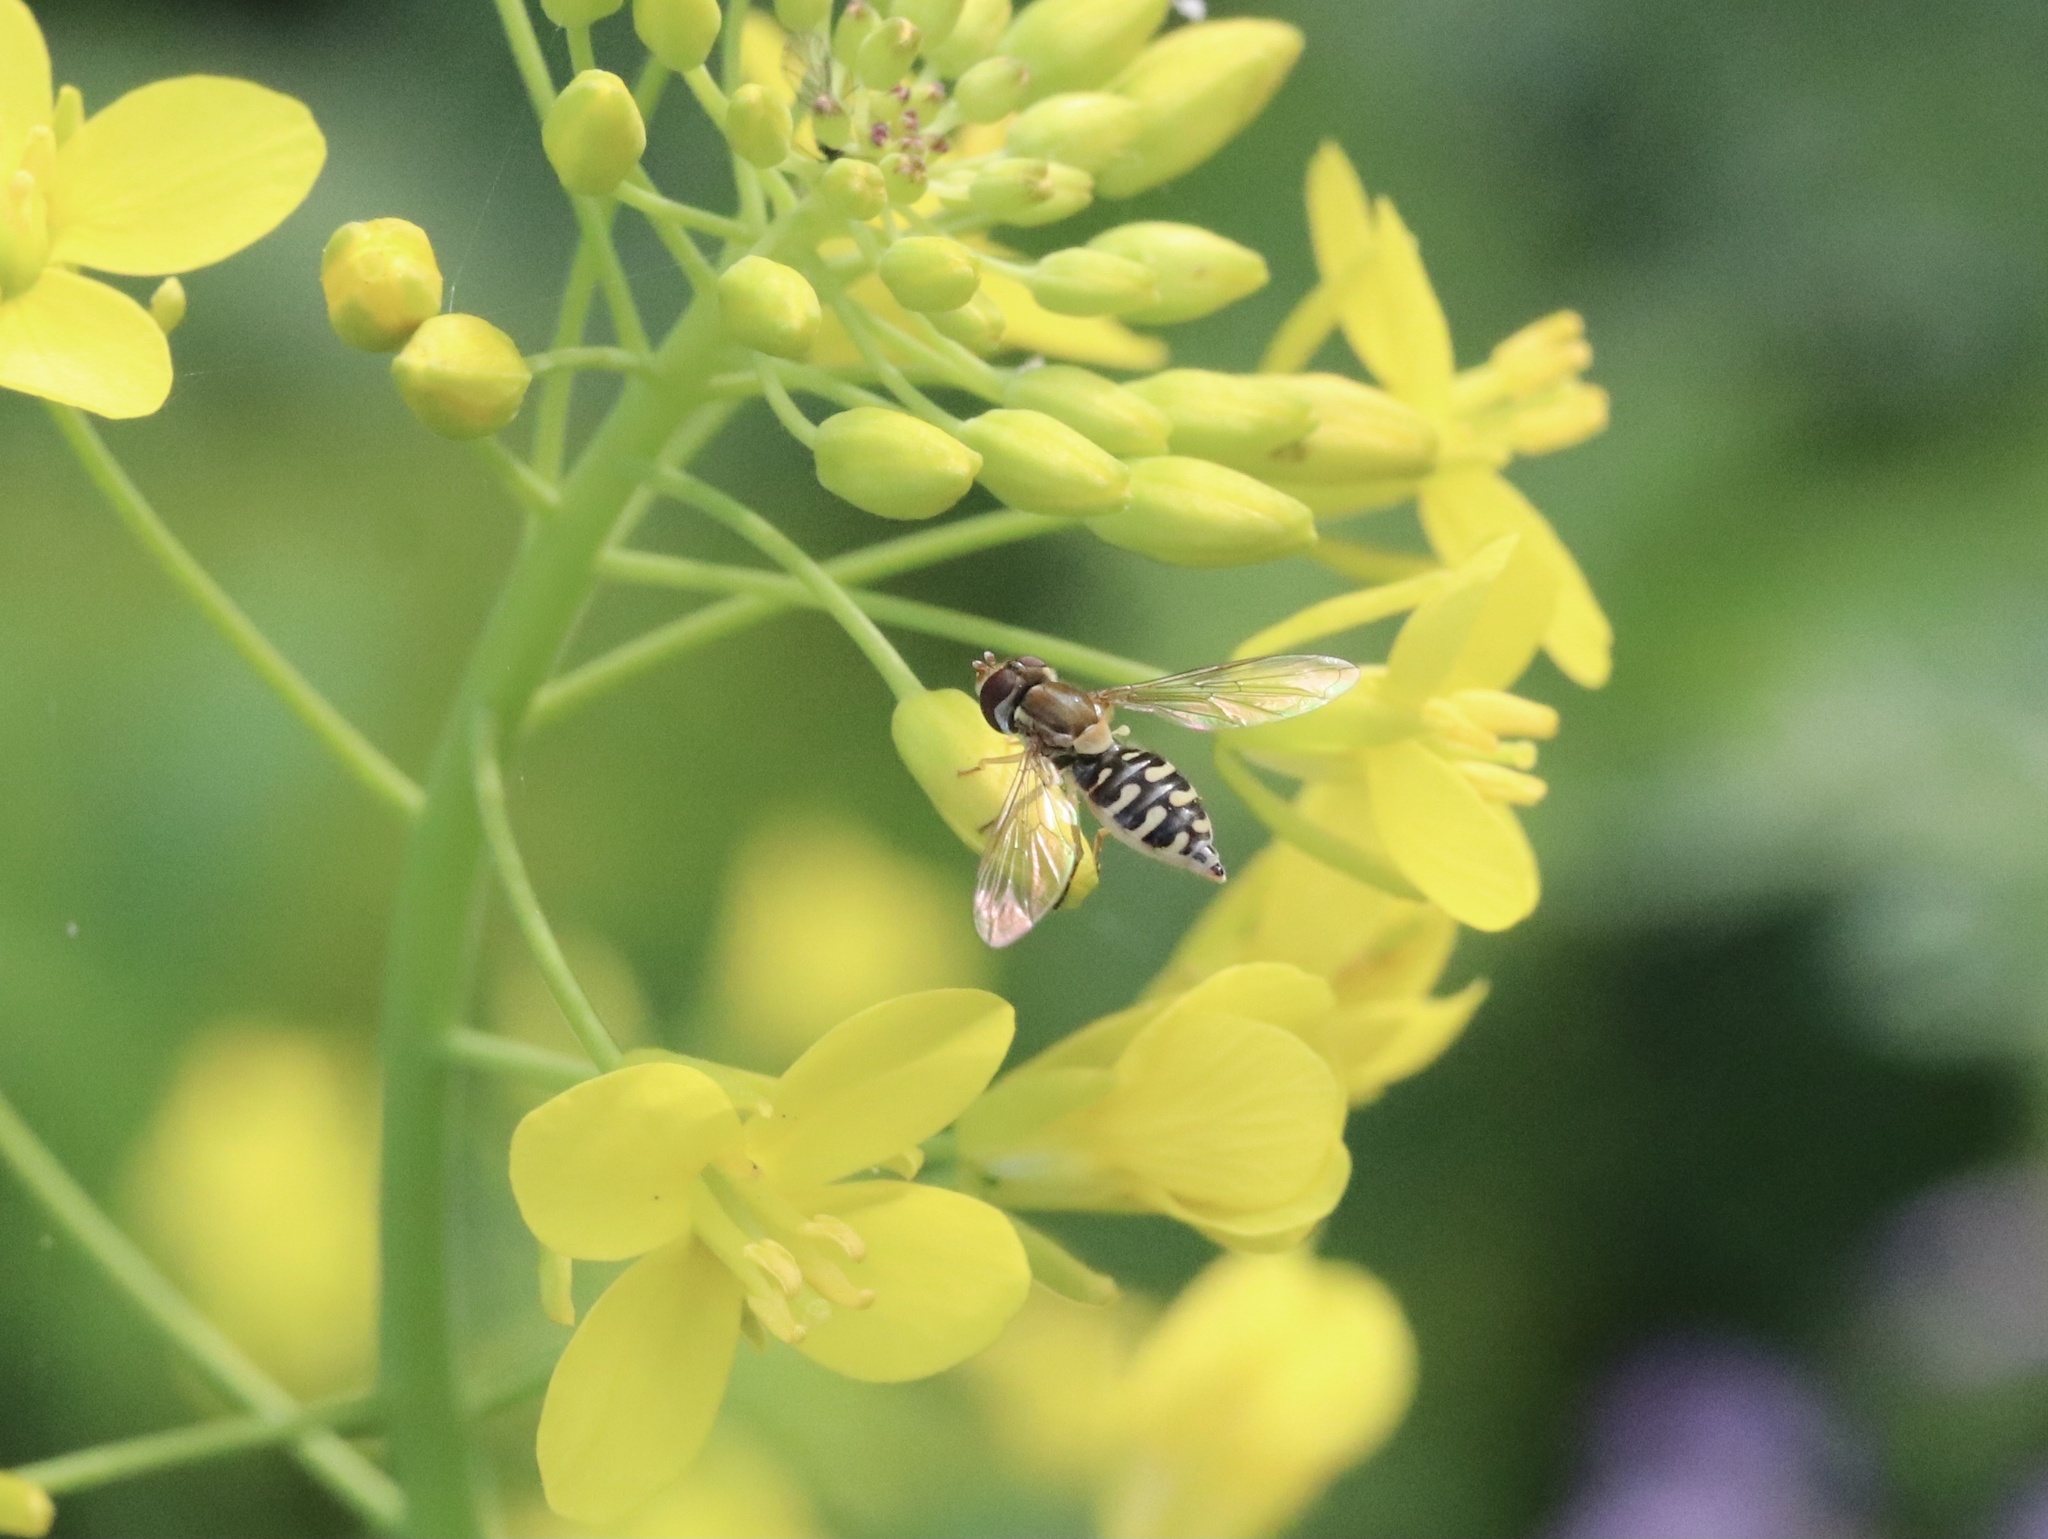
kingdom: Animalia
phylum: Arthropoda
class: Insecta
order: Diptera
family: Syrphidae
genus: Toxomerus
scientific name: Toxomerus vertebratus
